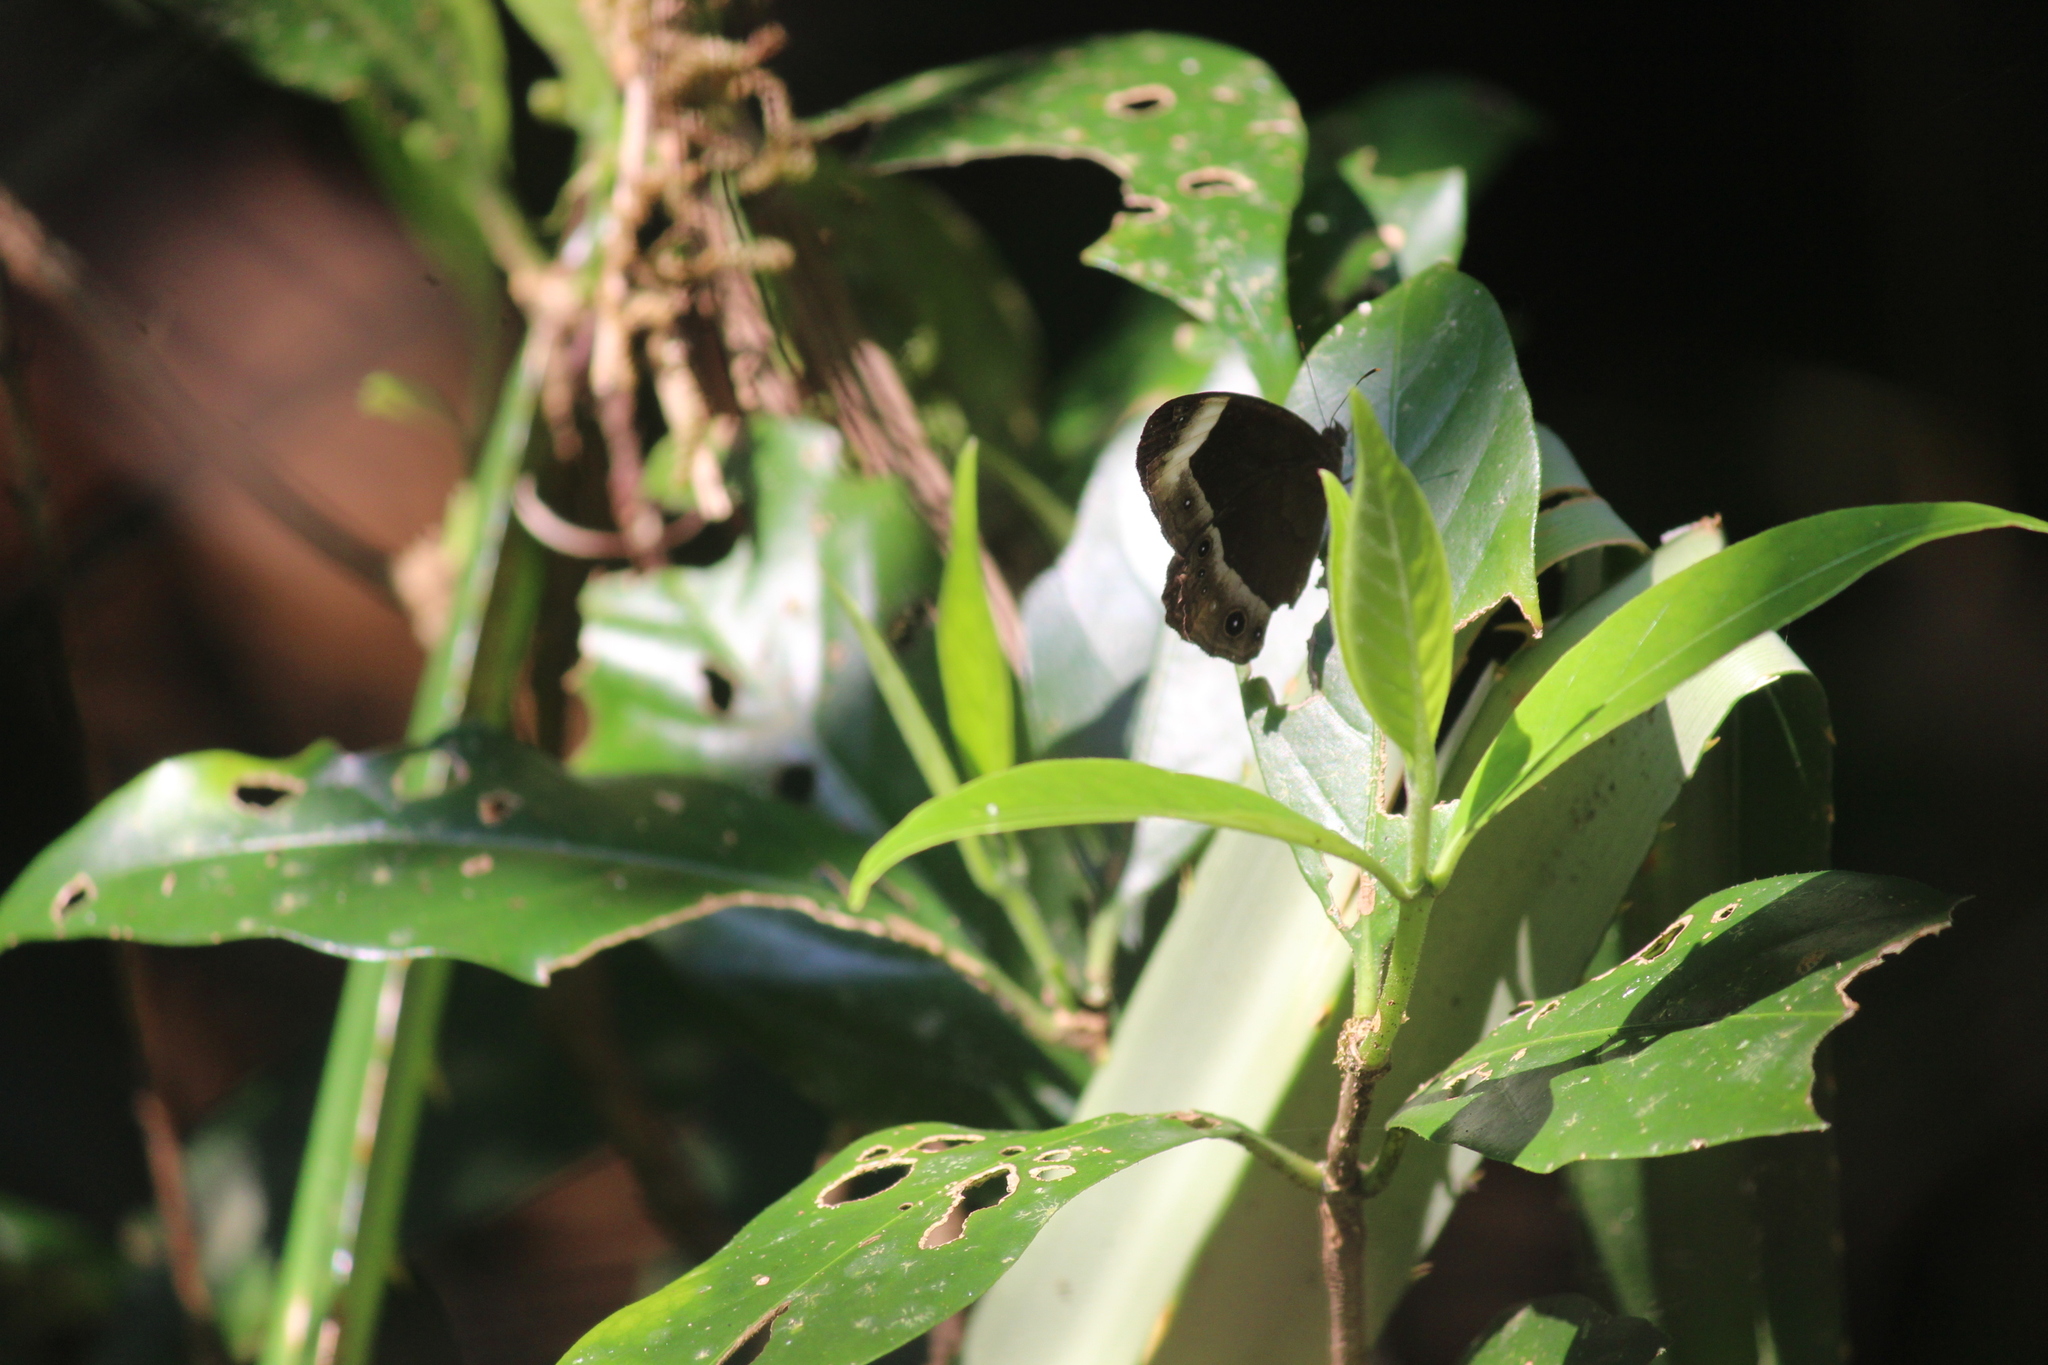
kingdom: Animalia
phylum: Arthropoda
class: Insecta
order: Lepidoptera
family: Nymphalidae
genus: Mycalesis
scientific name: Mycalesis anaxias
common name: White-bar bushbrown
